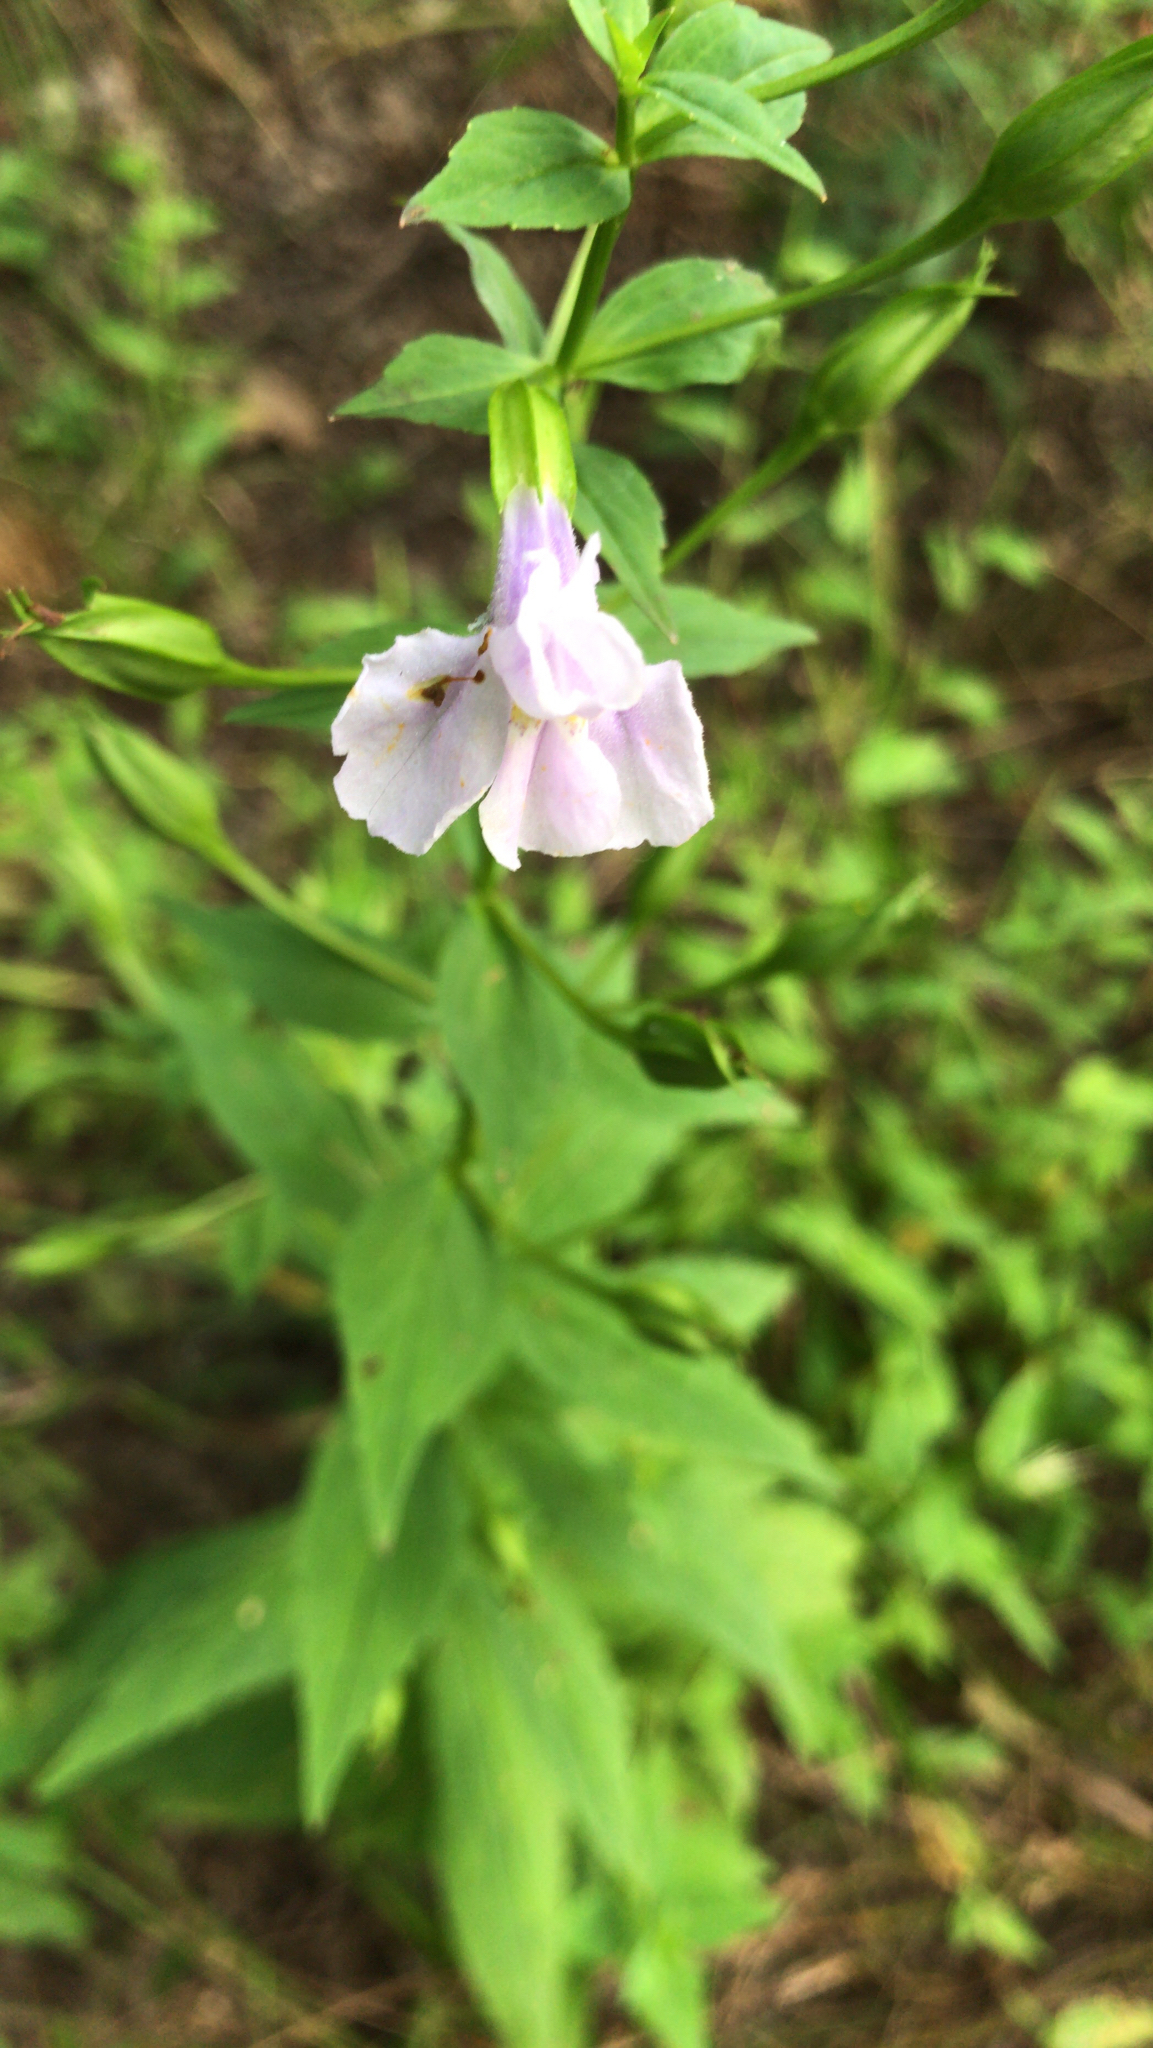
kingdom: Plantae
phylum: Tracheophyta
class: Magnoliopsida
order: Lamiales
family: Phrymaceae
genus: Mimulus
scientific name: Mimulus ringens
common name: Allegheny monkeyflower
